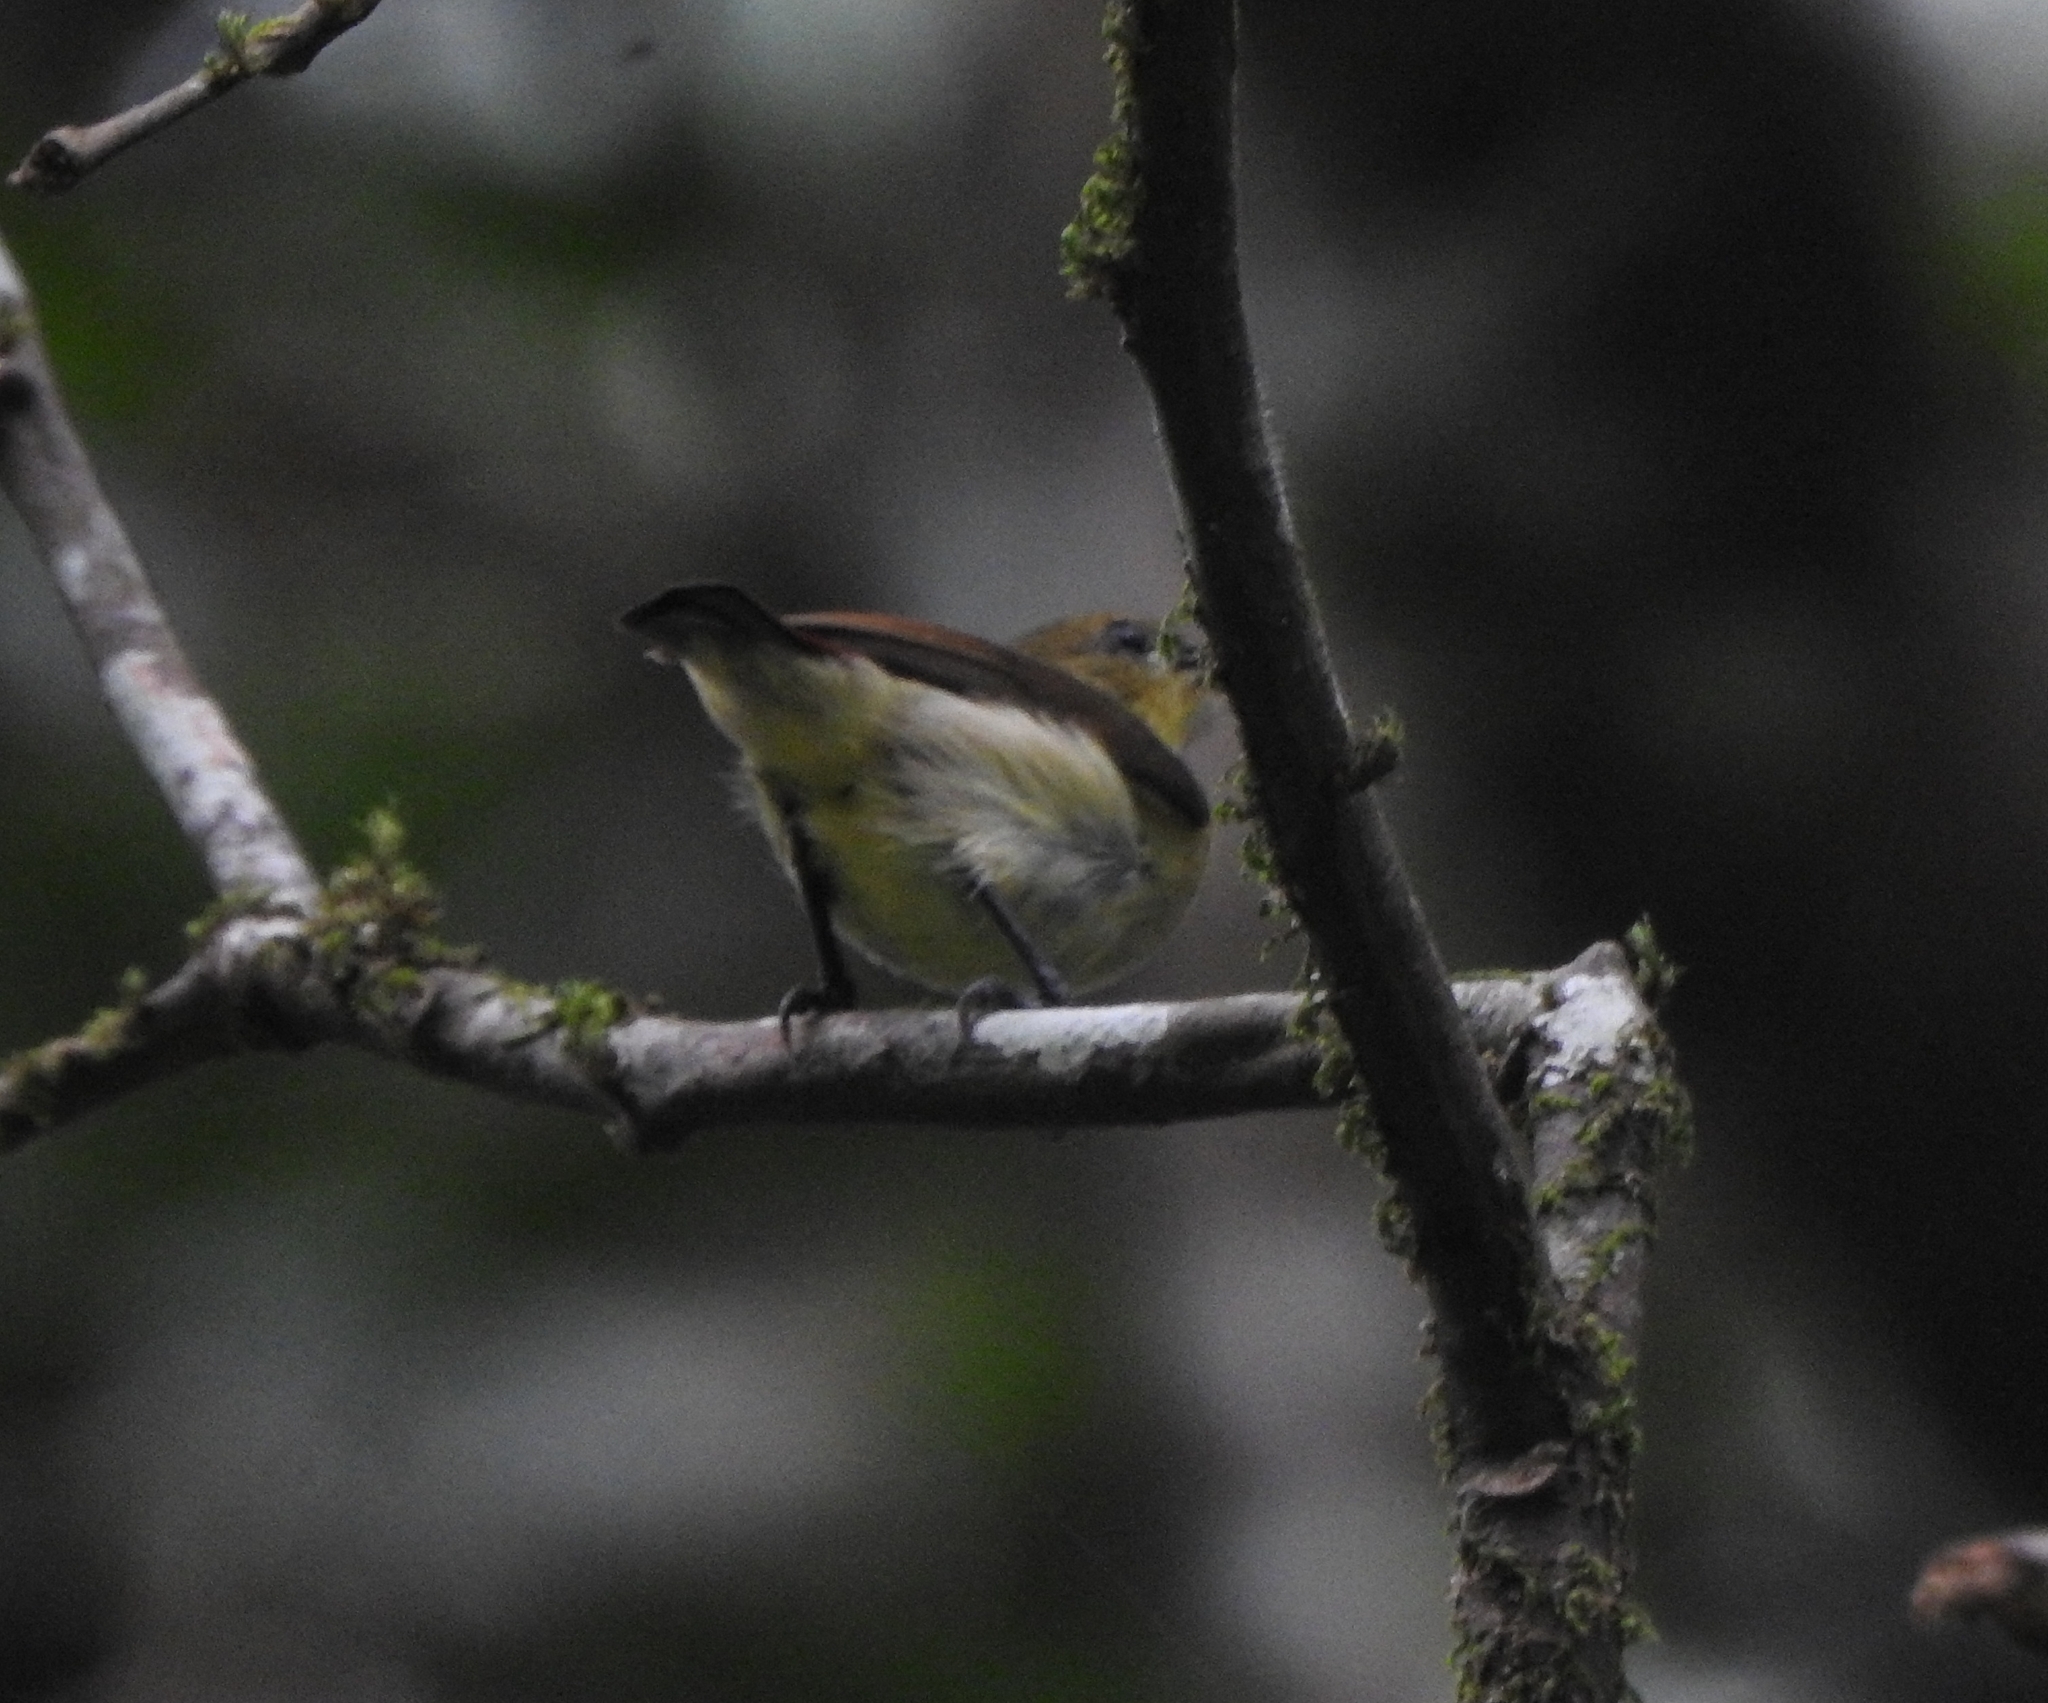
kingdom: Animalia
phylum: Chordata
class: Aves
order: Passeriformes
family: Nectariniidae
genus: Leptocoma
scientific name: Leptocoma minima
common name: Crimson-backed sunbird
